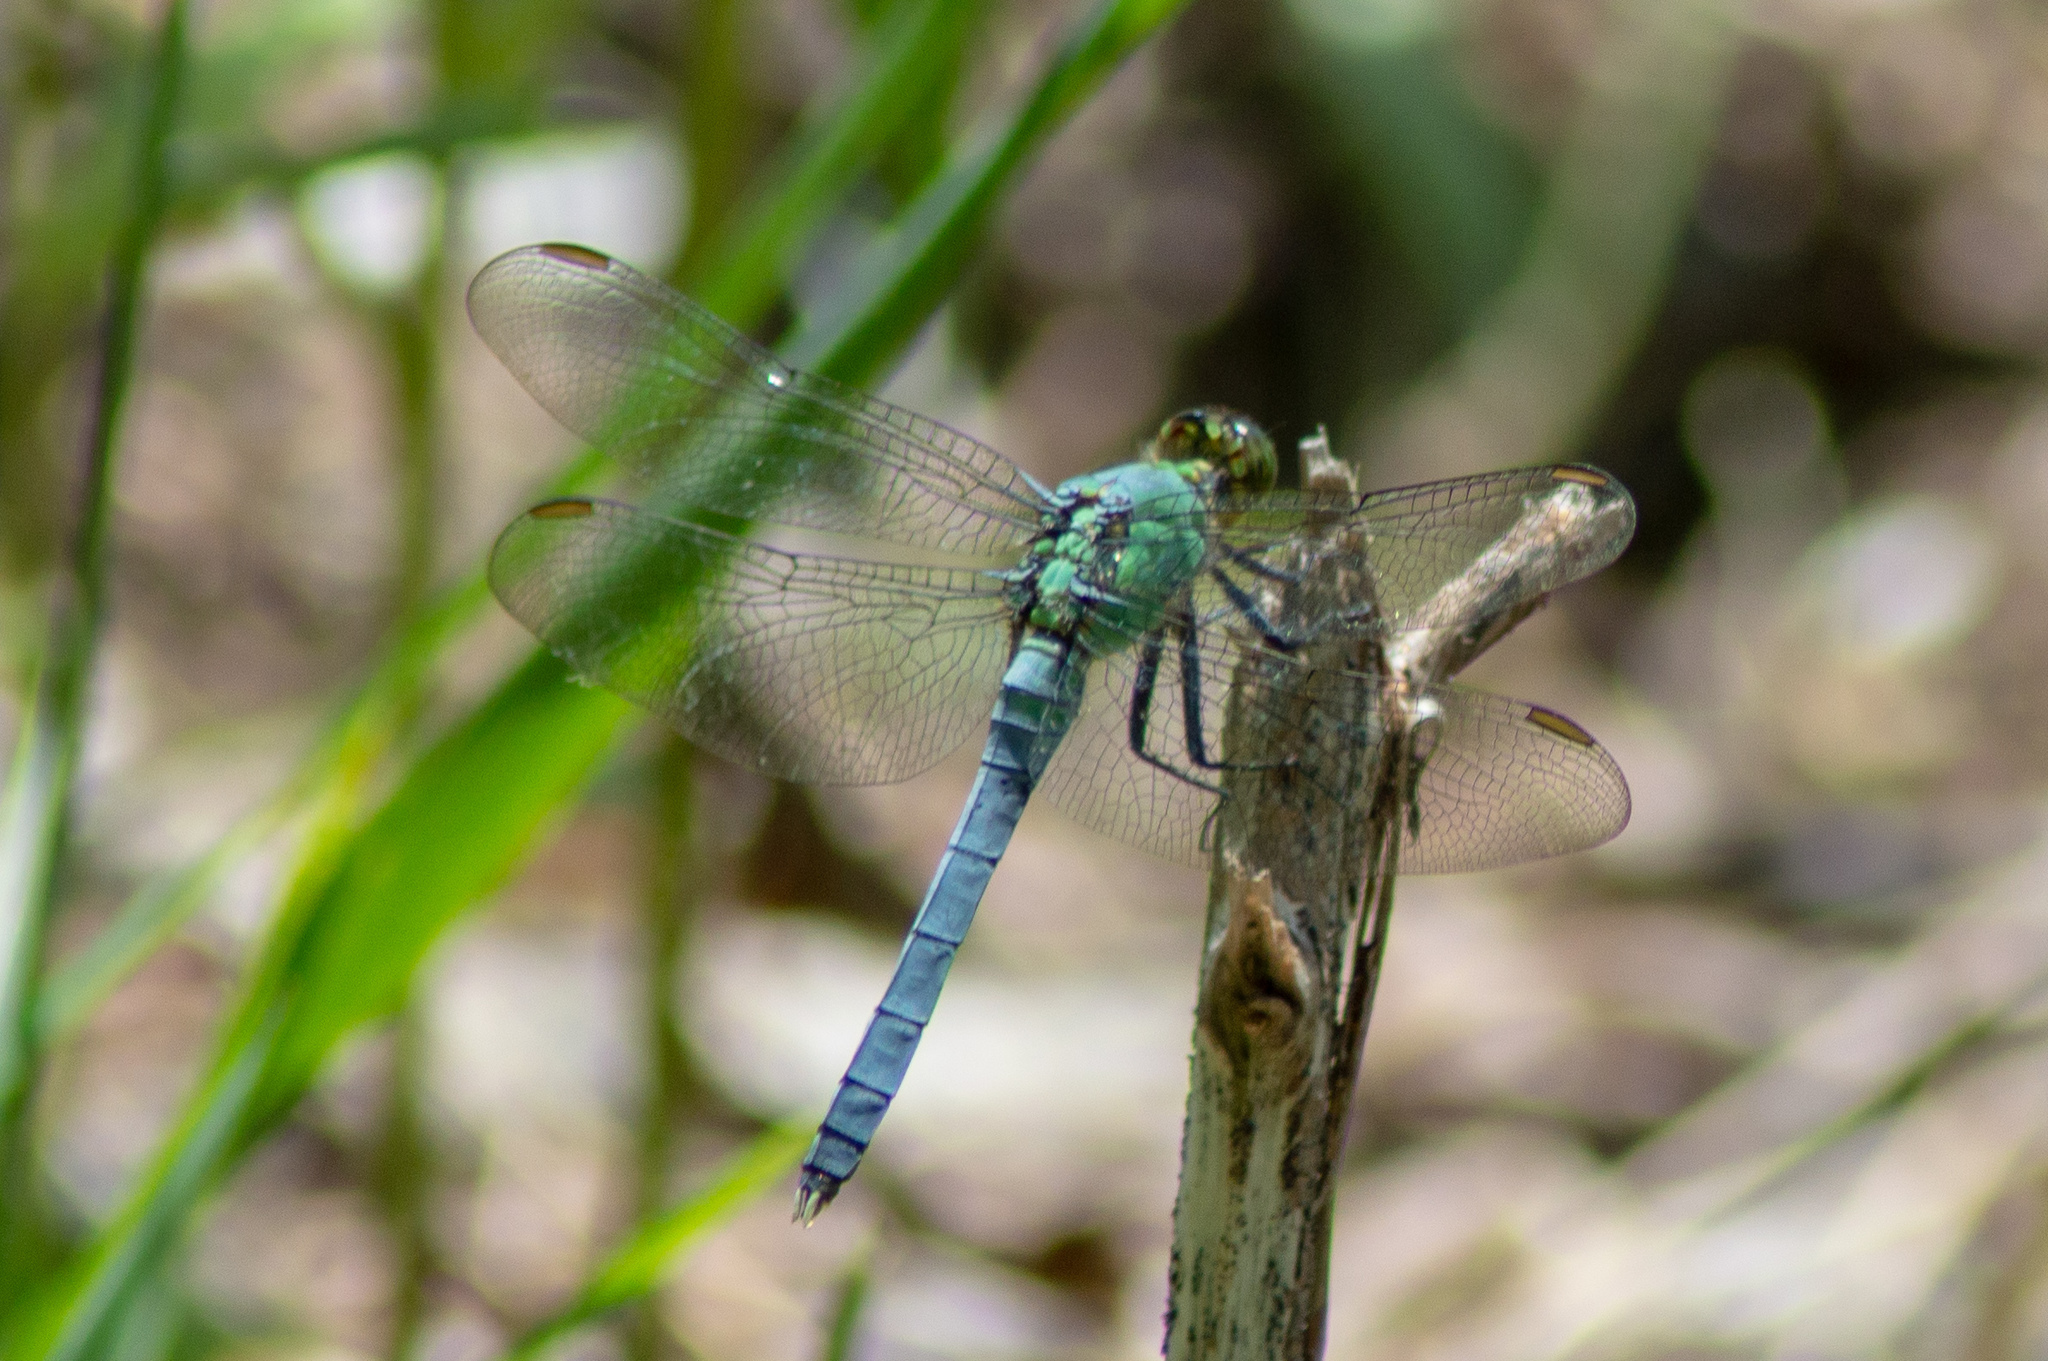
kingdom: Animalia
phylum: Arthropoda
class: Insecta
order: Odonata
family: Libellulidae
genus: Erythemis
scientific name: Erythemis simplicicollis
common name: Eastern pondhawk
